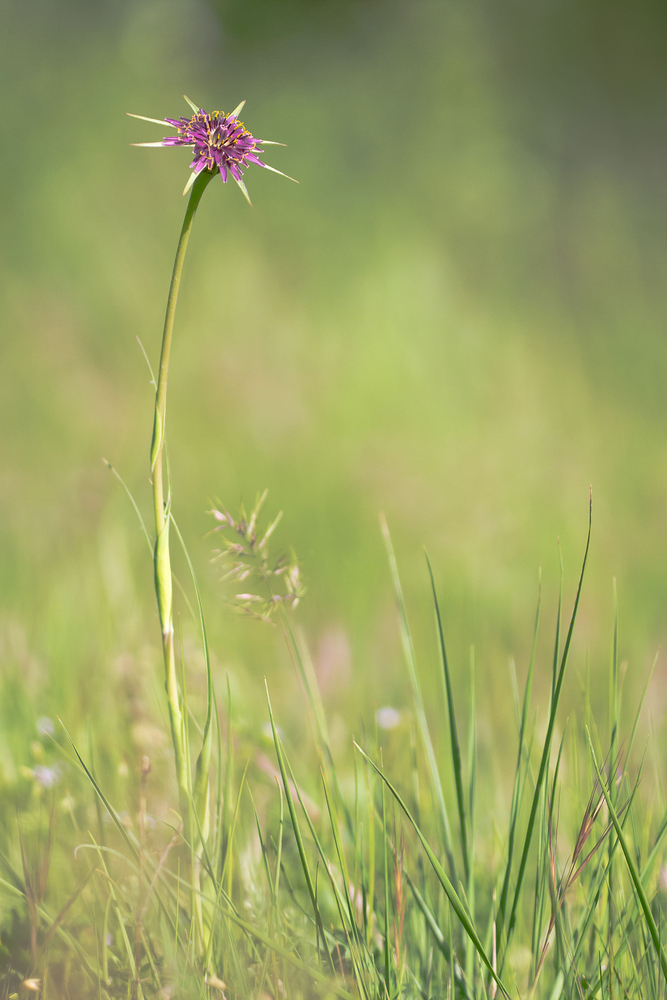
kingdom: Plantae
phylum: Tracheophyta
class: Magnoliopsida
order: Asterales
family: Asteraceae
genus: Tragopogon
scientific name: Tragopogon porrifolius
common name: Salsify
